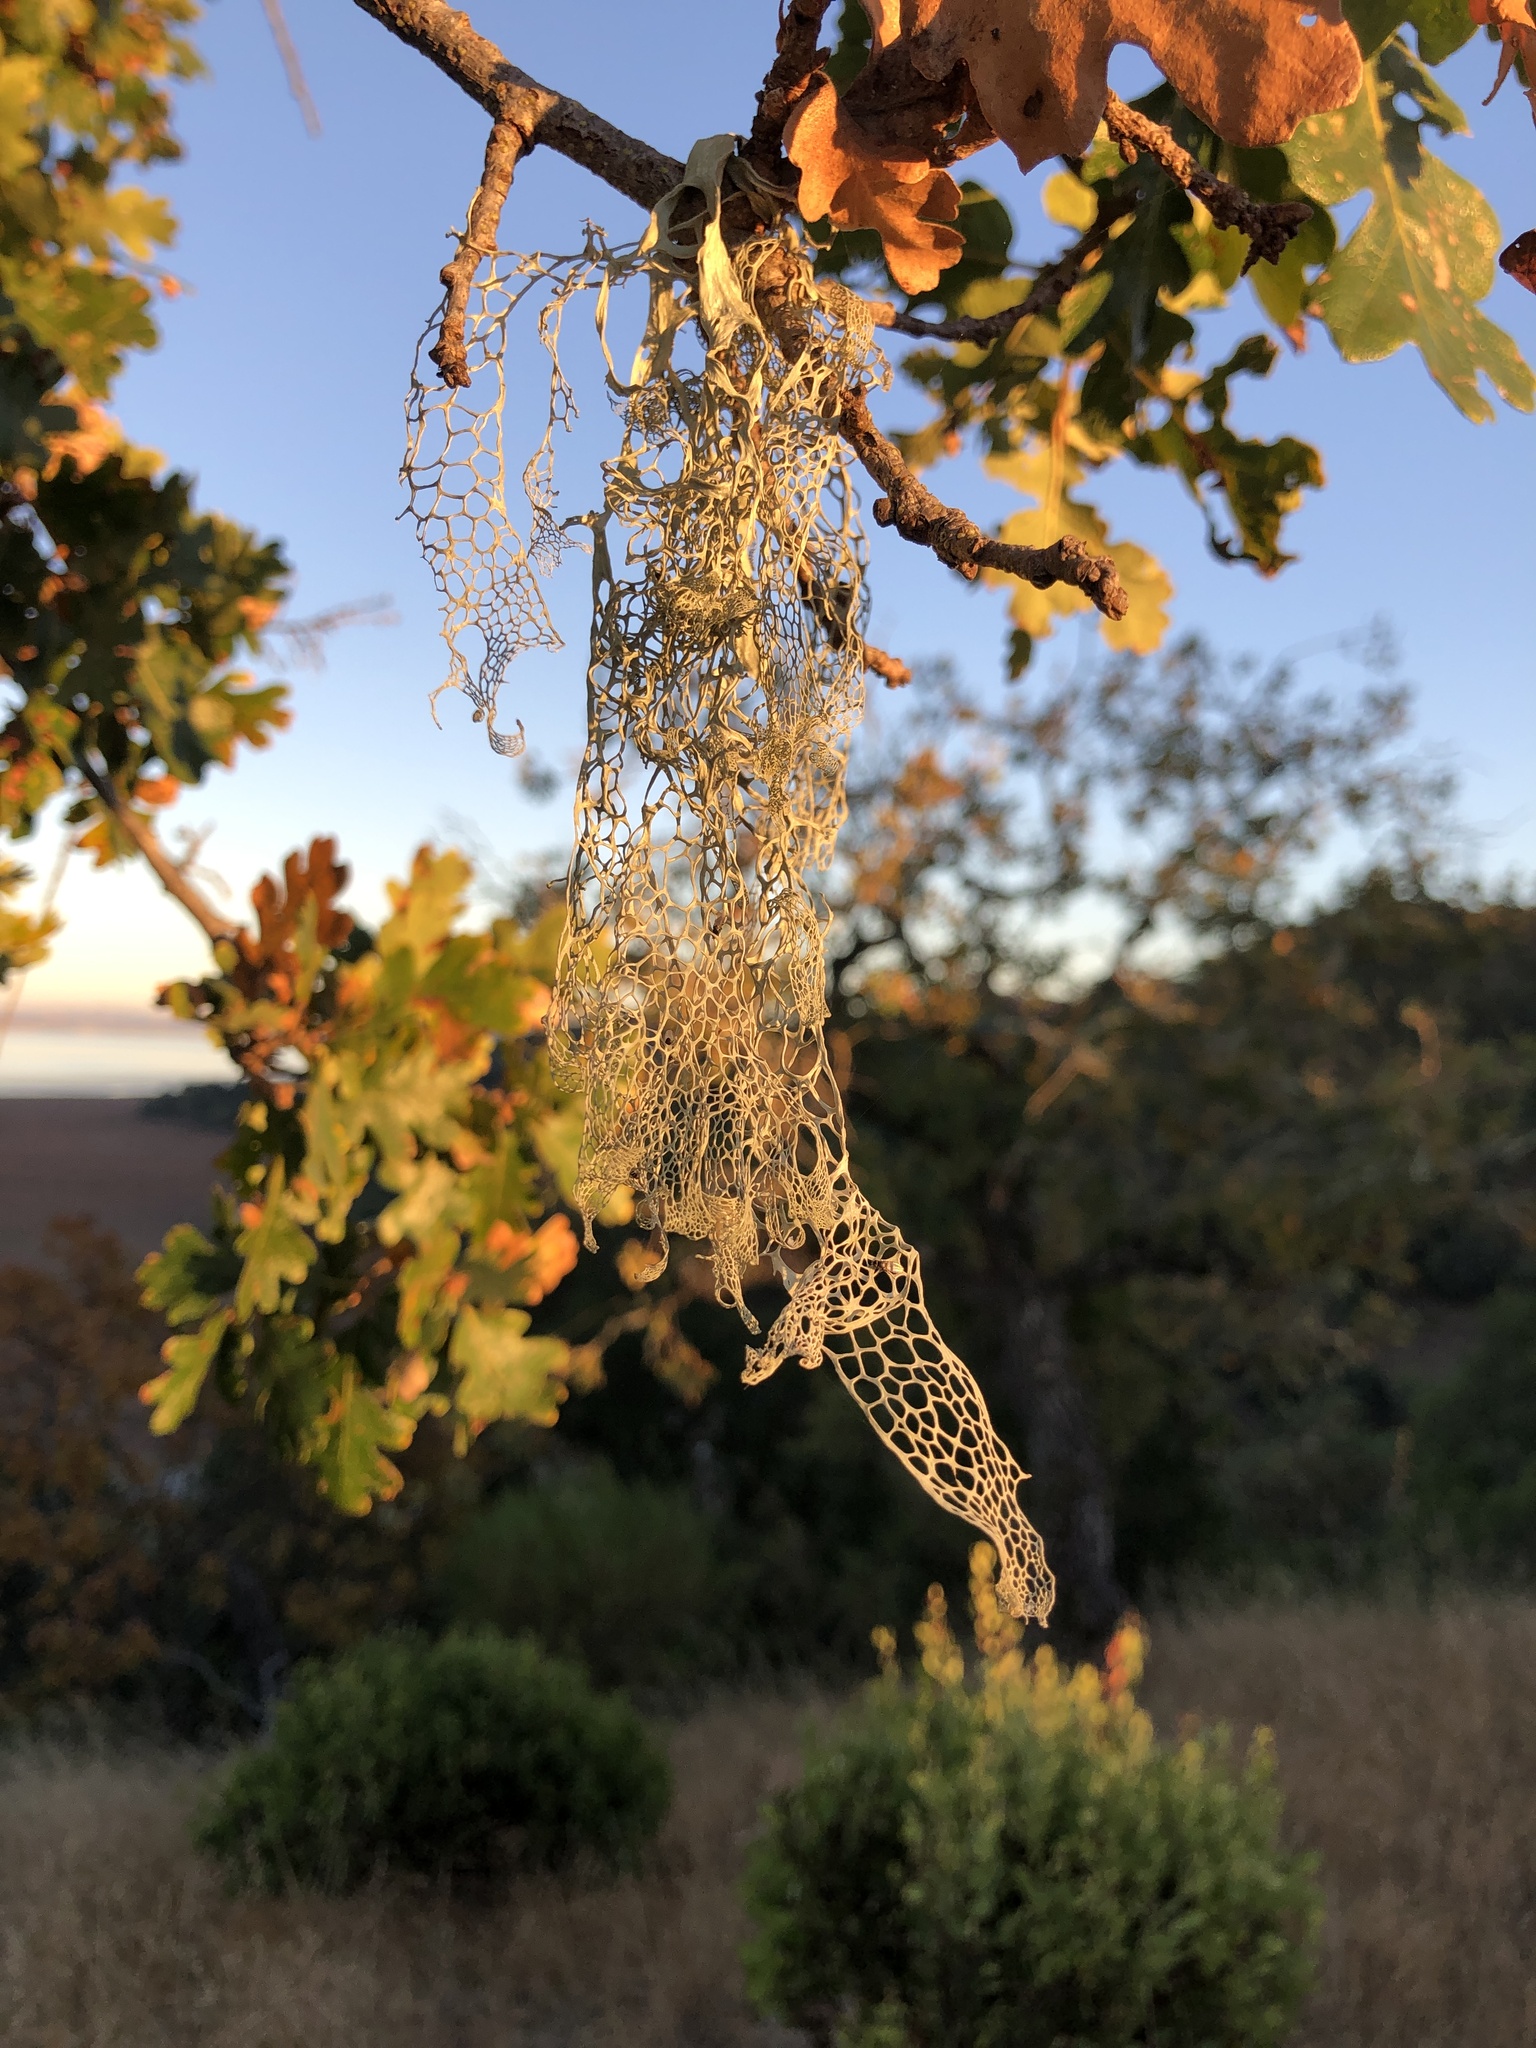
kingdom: Fungi
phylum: Ascomycota
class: Lecanoromycetes
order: Lecanorales
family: Ramalinaceae
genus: Ramalina
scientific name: Ramalina menziesii
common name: Lace lichen
